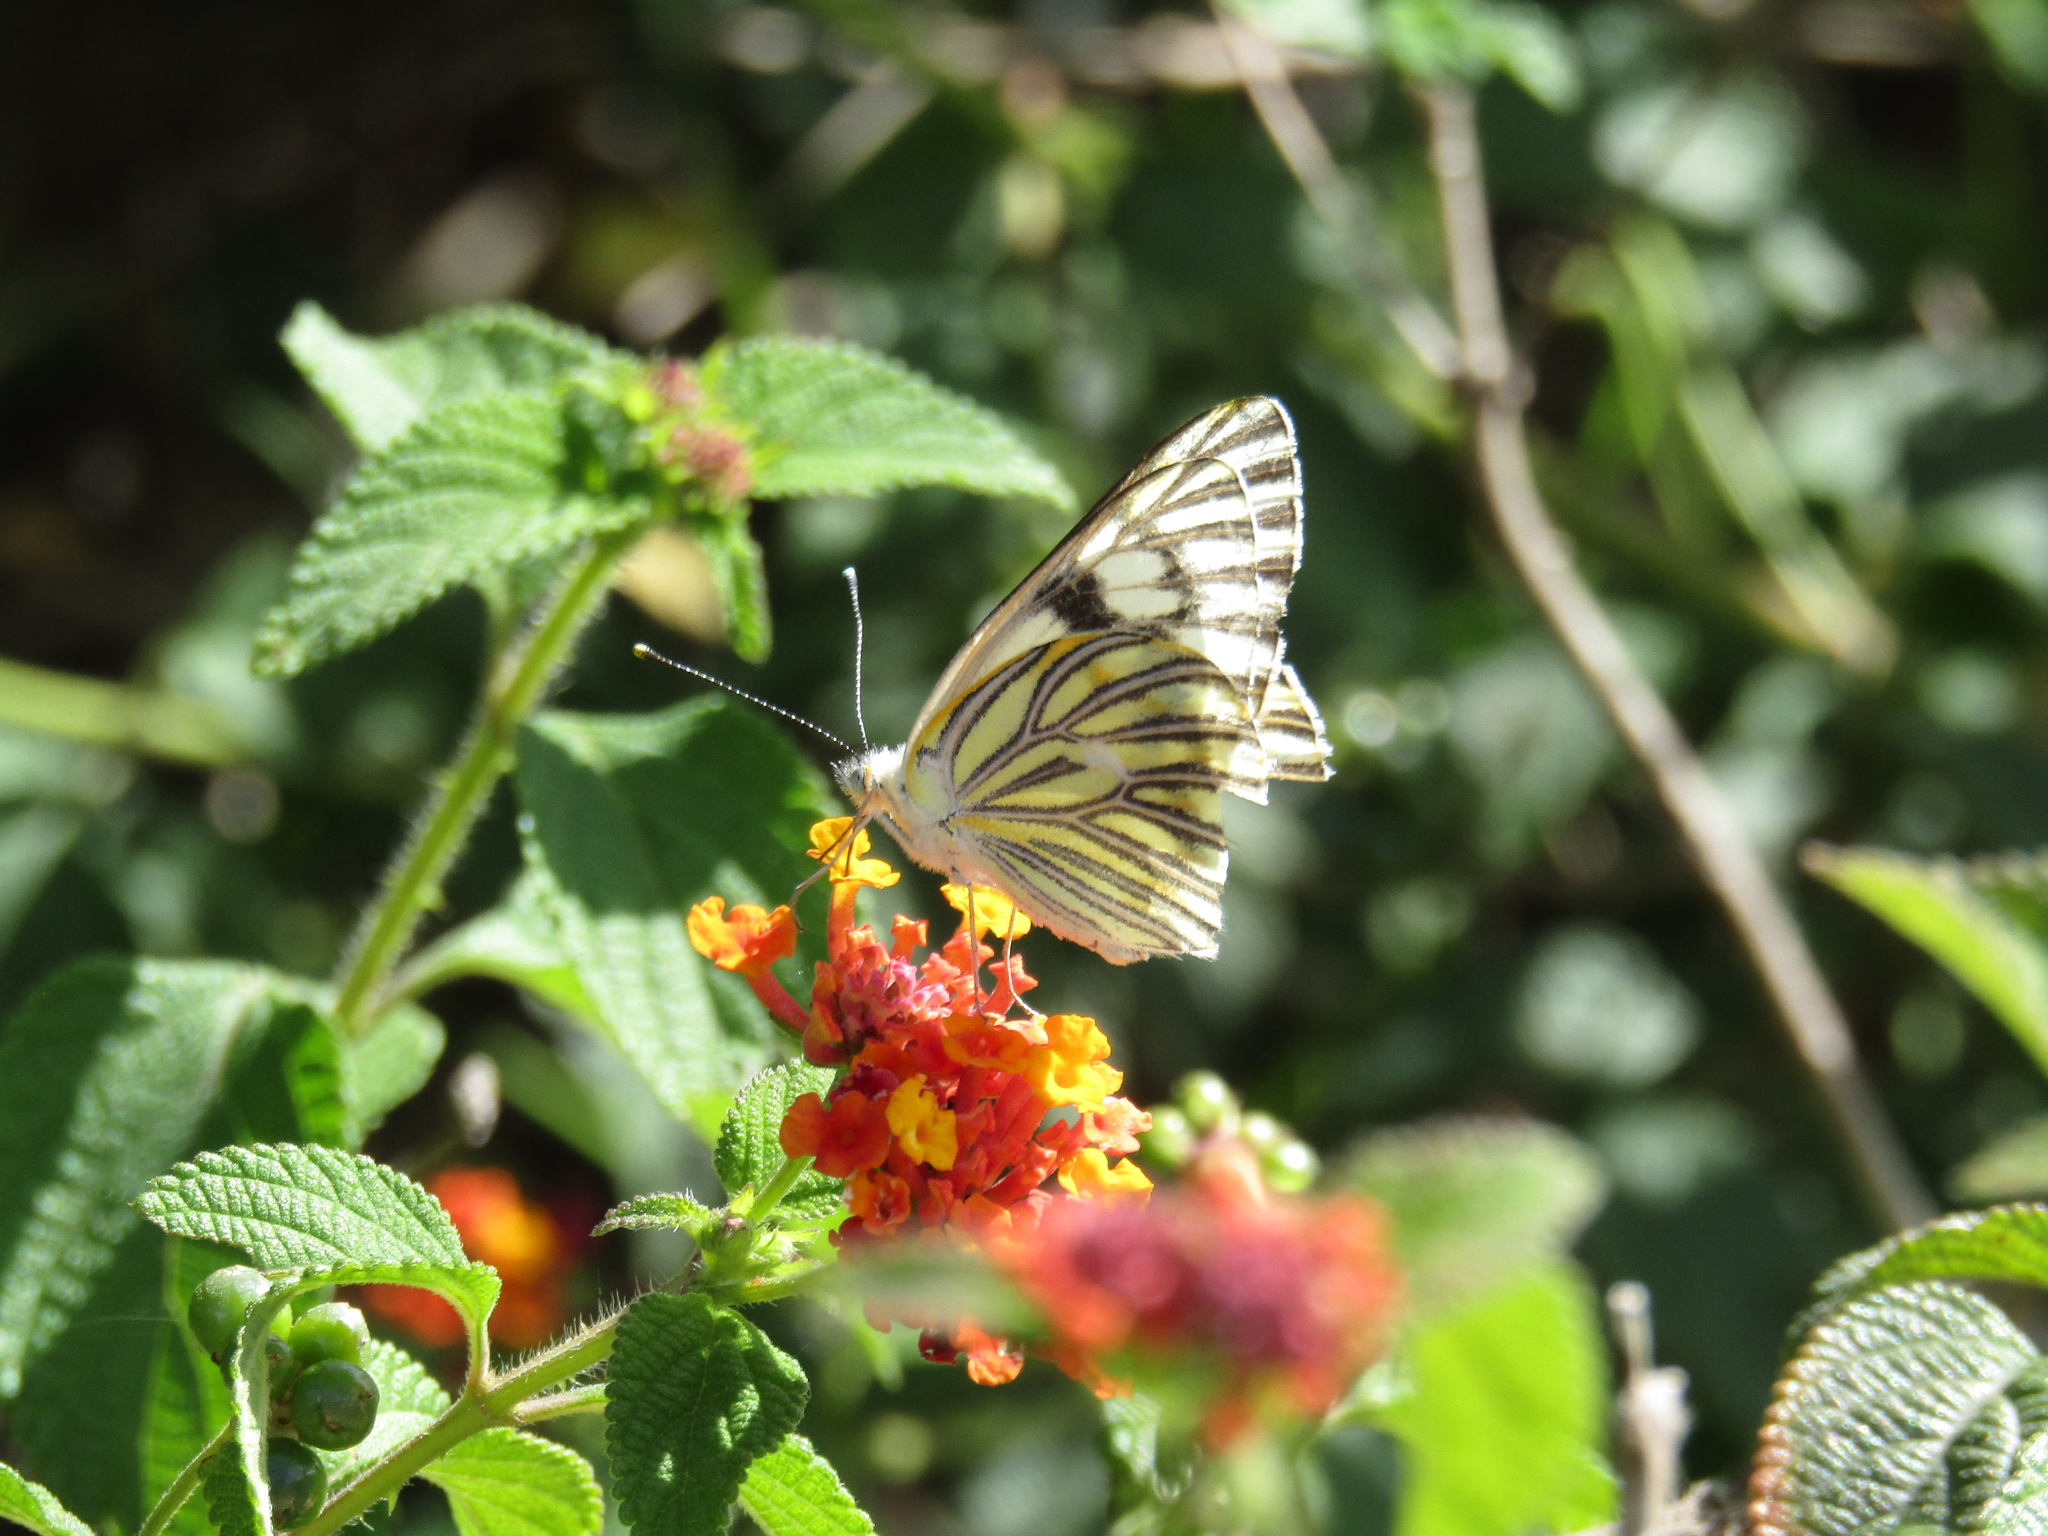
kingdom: Animalia
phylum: Arthropoda
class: Insecta
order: Lepidoptera
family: Pieridae
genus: Tatochila
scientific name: Tatochila mercedis
